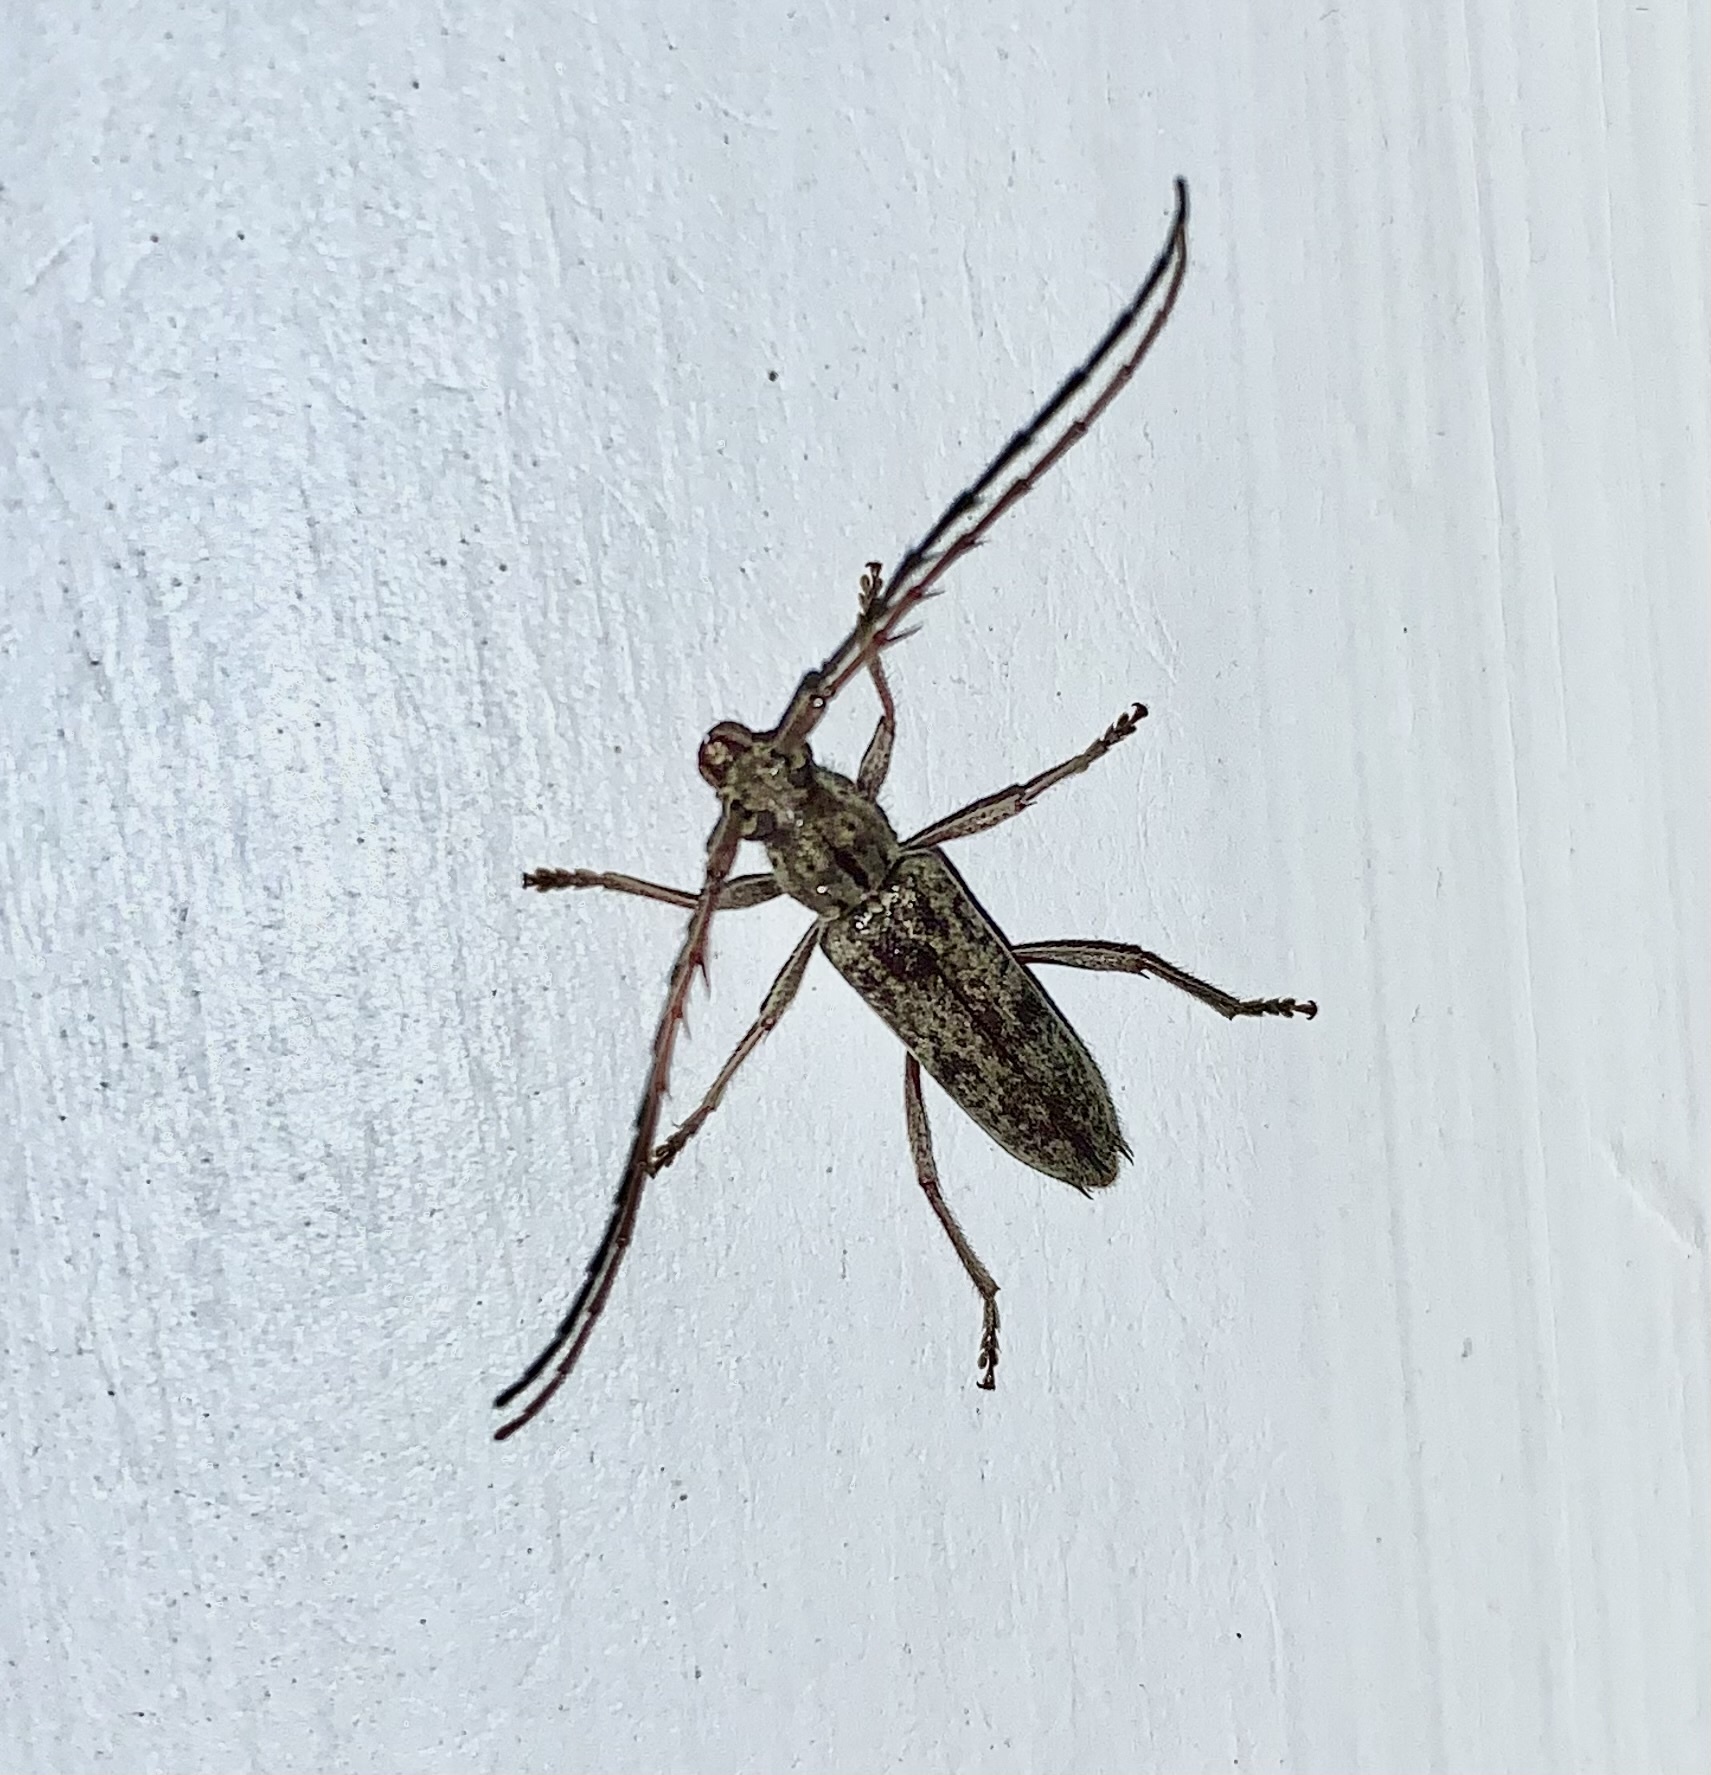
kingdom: Animalia
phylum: Arthropoda
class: Insecta
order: Coleoptera
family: Cerambycidae
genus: Elaphidion
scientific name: Elaphidion mucronatum
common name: Spined oak borer
